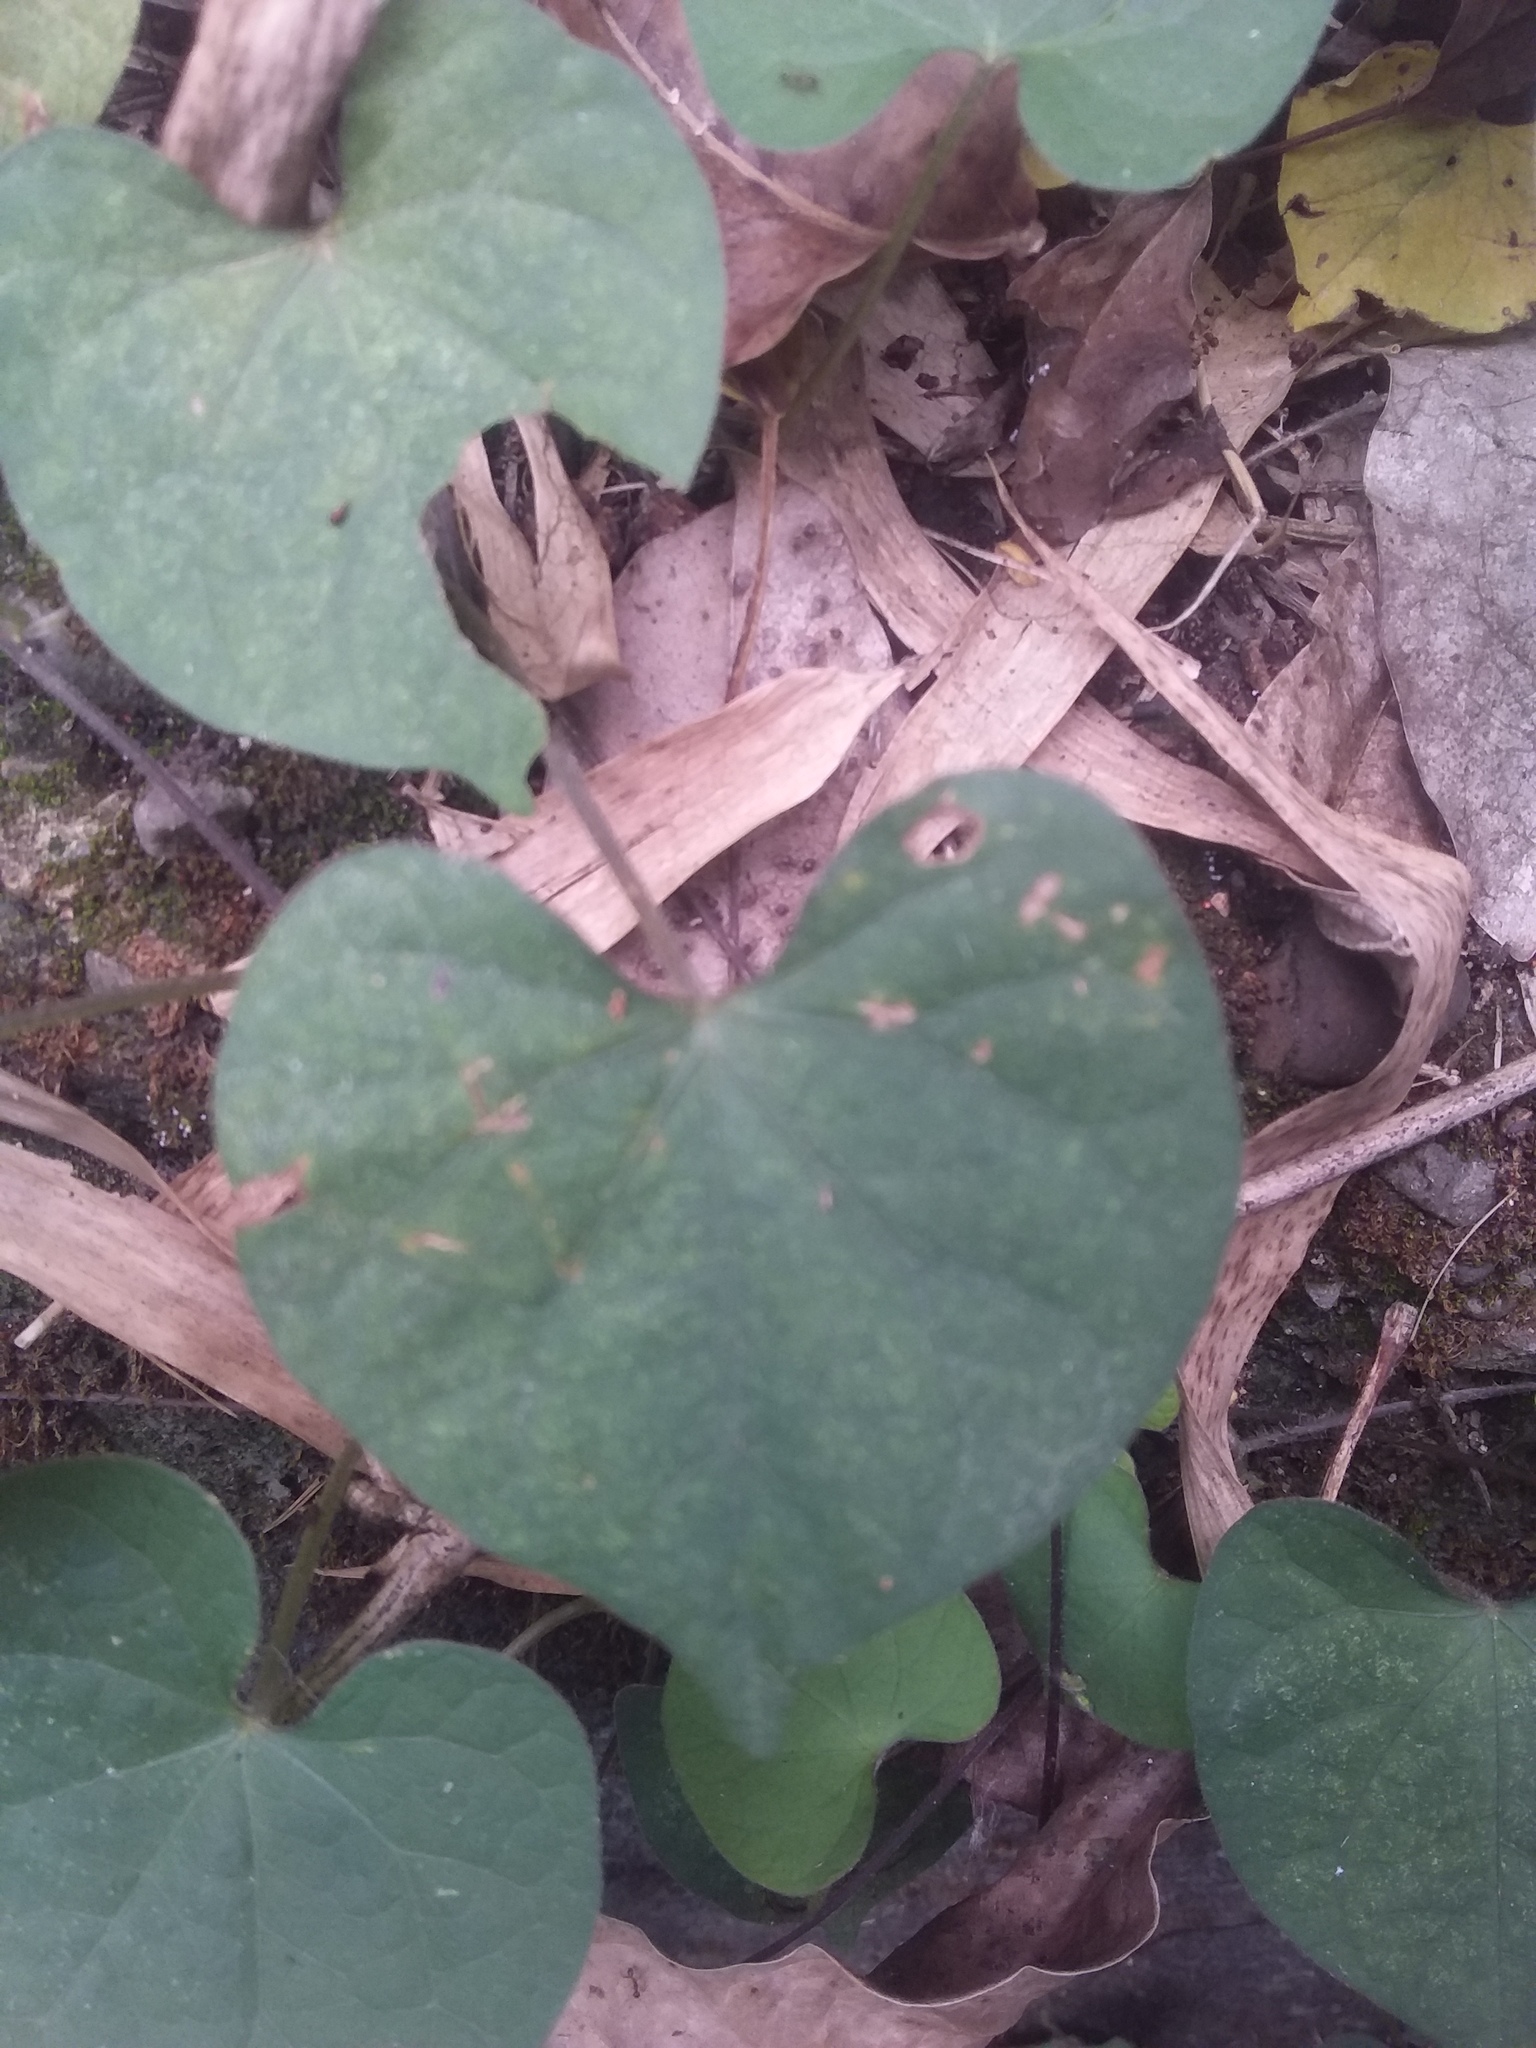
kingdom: Plantae
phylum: Tracheophyta
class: Magnoliopsida
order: Solanales
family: Convolvulaceae
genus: Ipomoea
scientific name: Ipomoea obscura
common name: Obscure morning-glory
